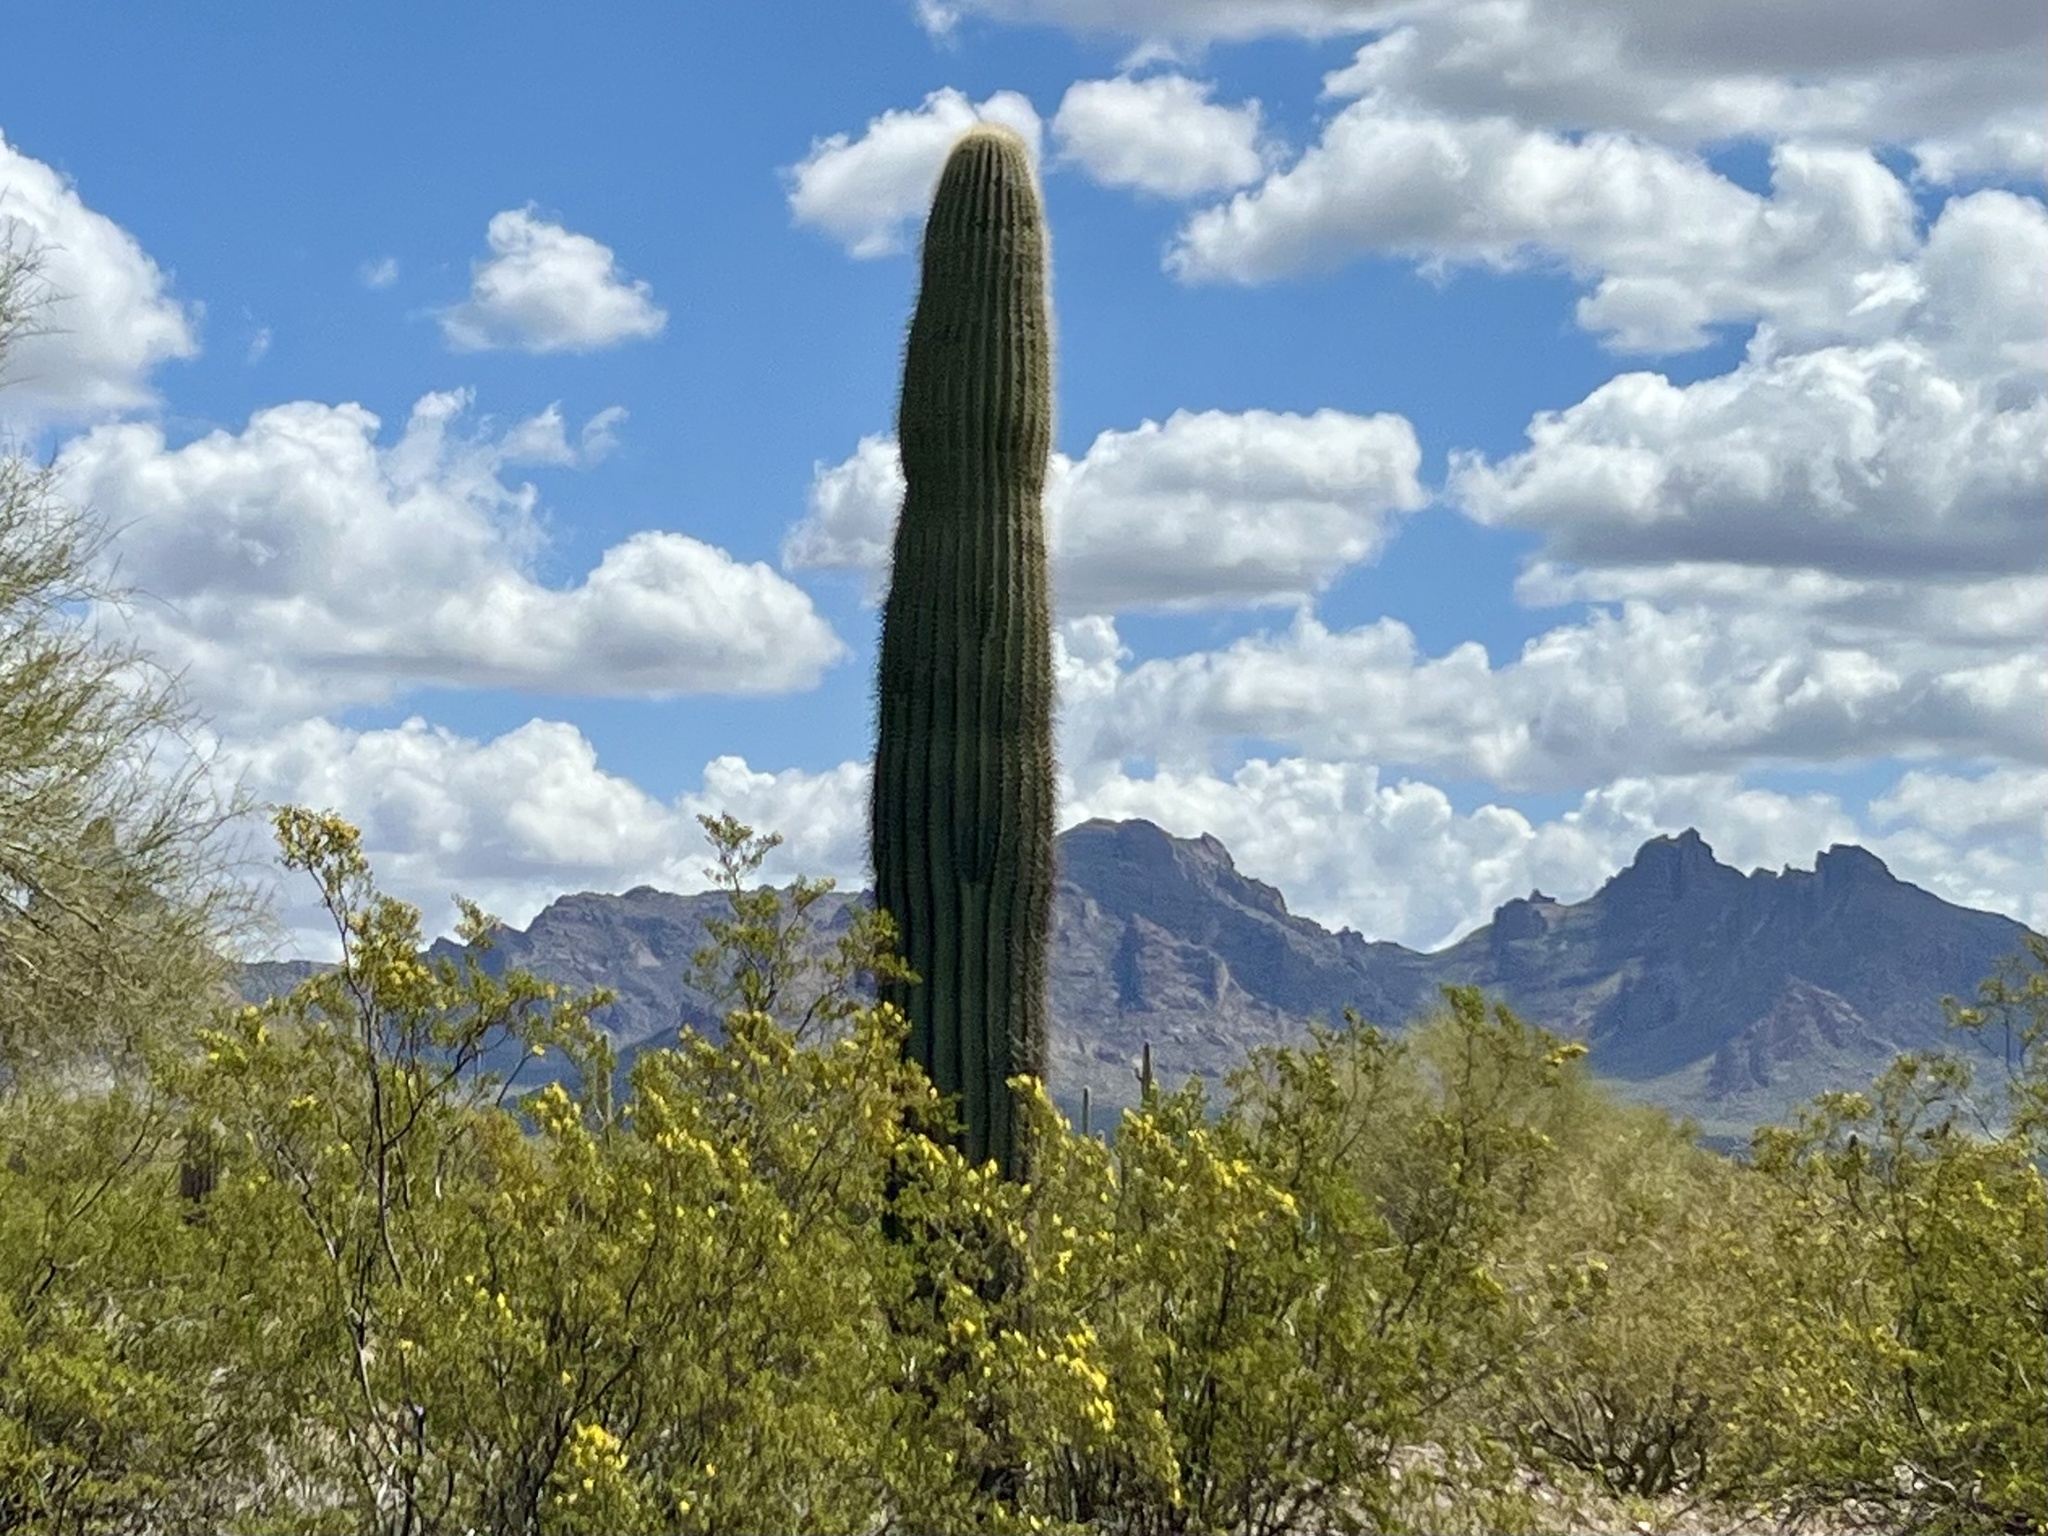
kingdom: Plantae
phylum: Tracheophyta
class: Magnoliopsida
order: Caryophyllales
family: Cactaceae
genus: Carnegiea
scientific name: Carnegiea gigantea
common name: Saguaro
